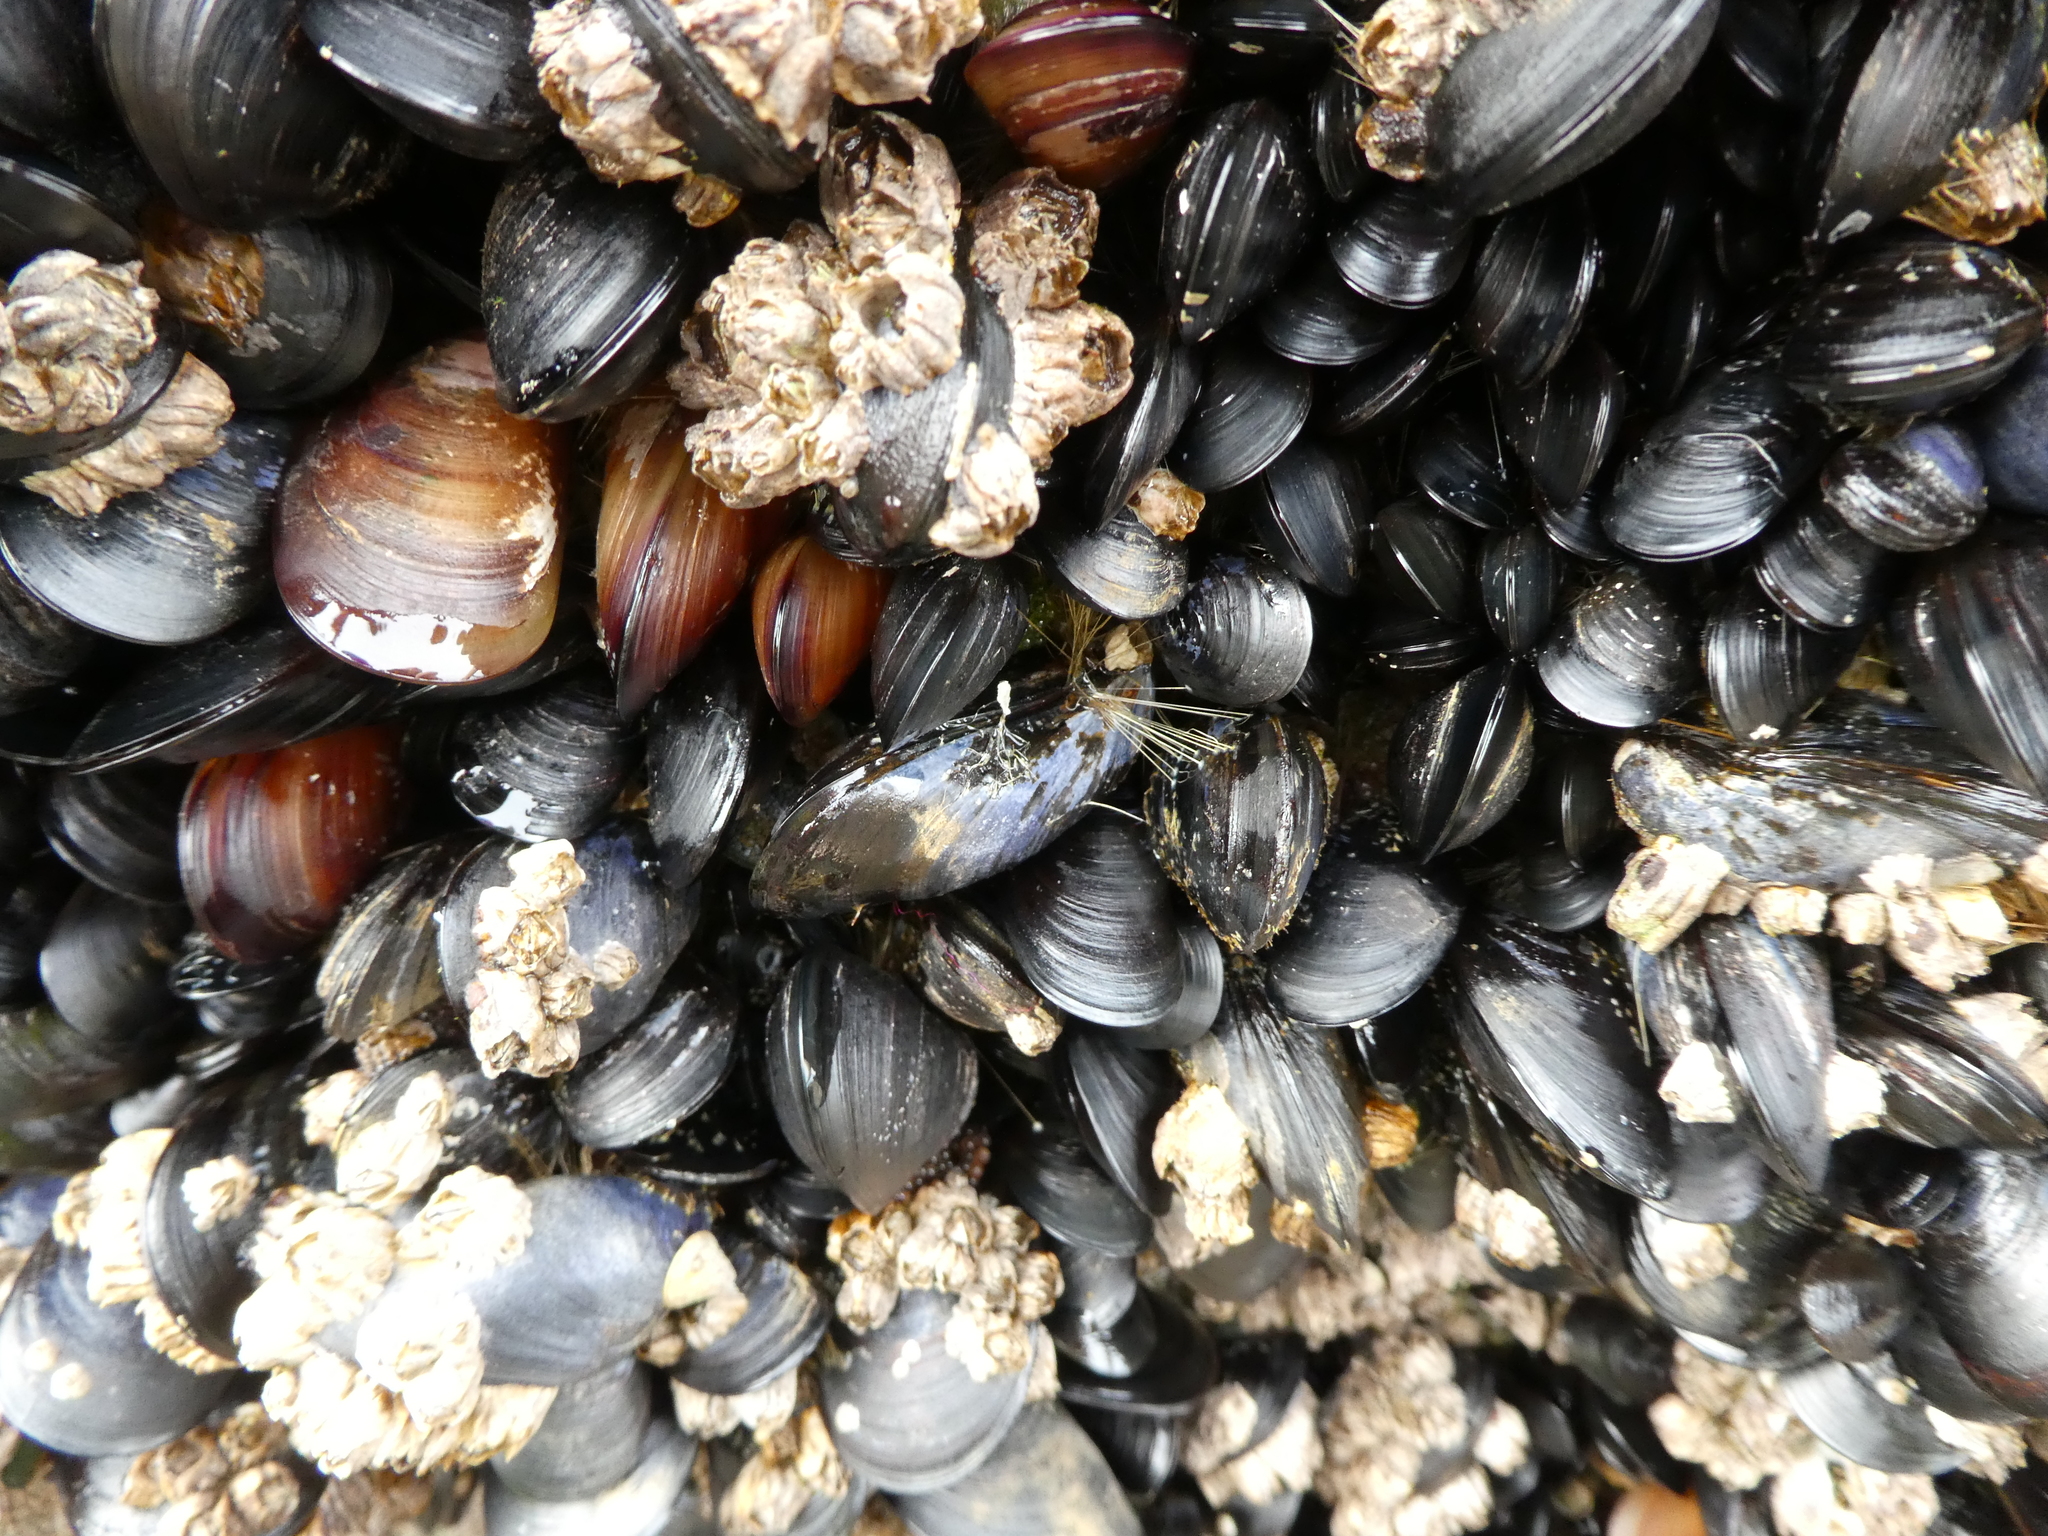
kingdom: Animalia
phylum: Mollusca
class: Bivalvia
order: Mytilida
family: Mytilidae
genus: Mytilus
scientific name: Mytilus
